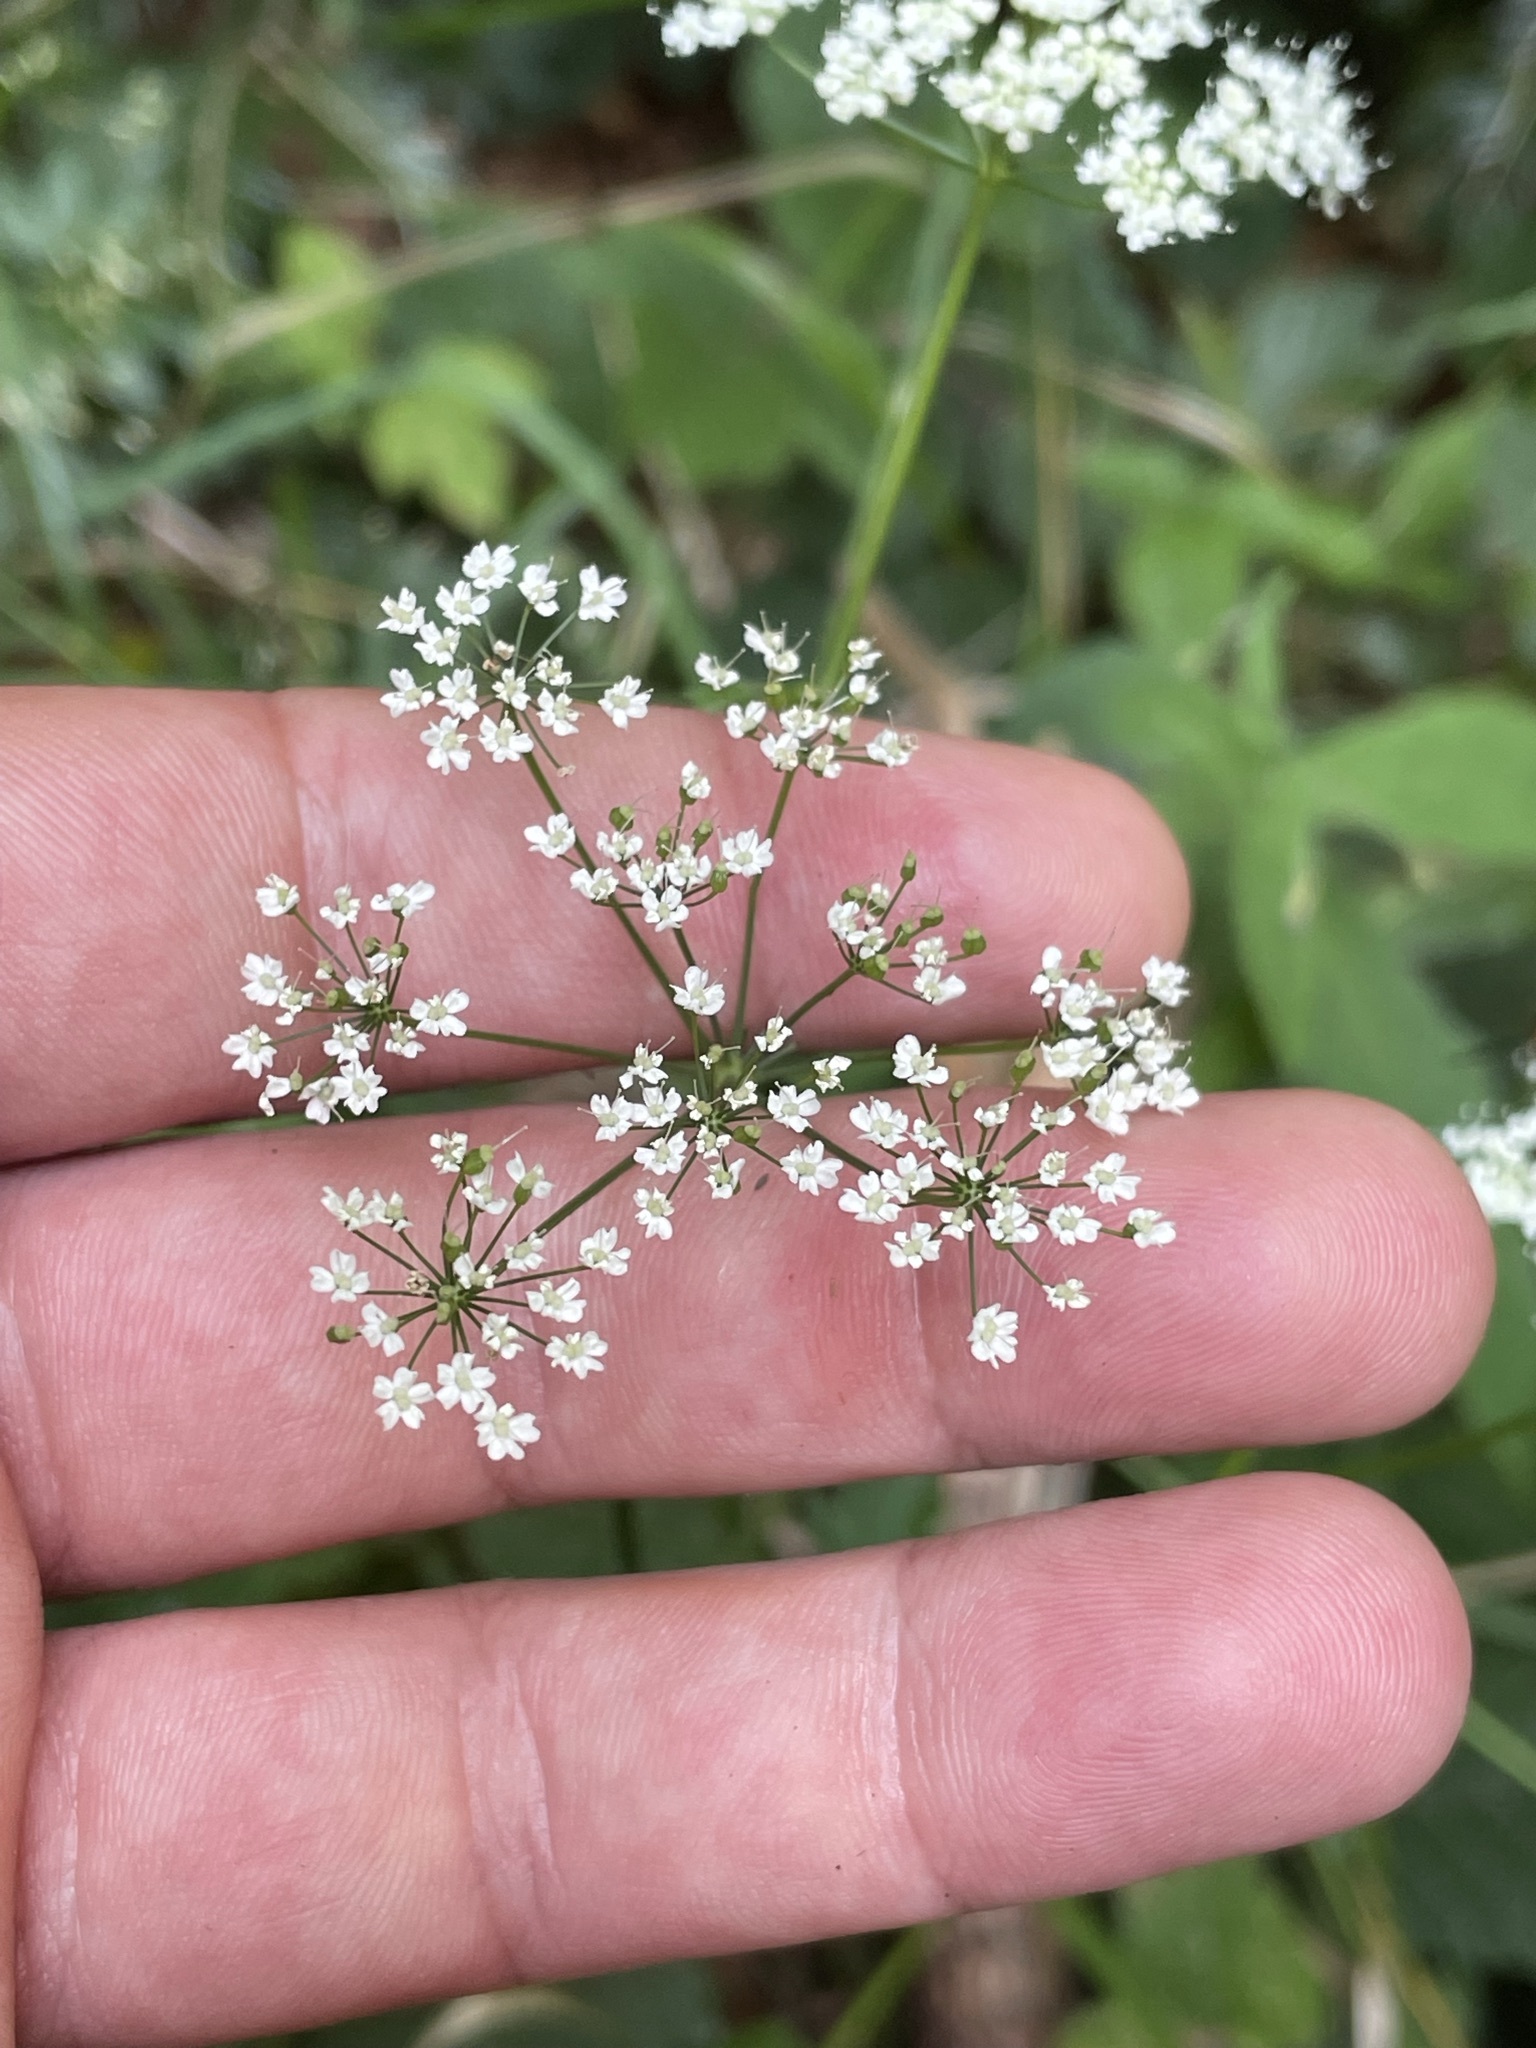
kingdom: Plantae
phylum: Tracheophyta
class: Magnoliopsida
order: Apiales
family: Apiaceae
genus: Pimpinella
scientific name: Pimpinella major
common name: Greater burnet-saxifrage
